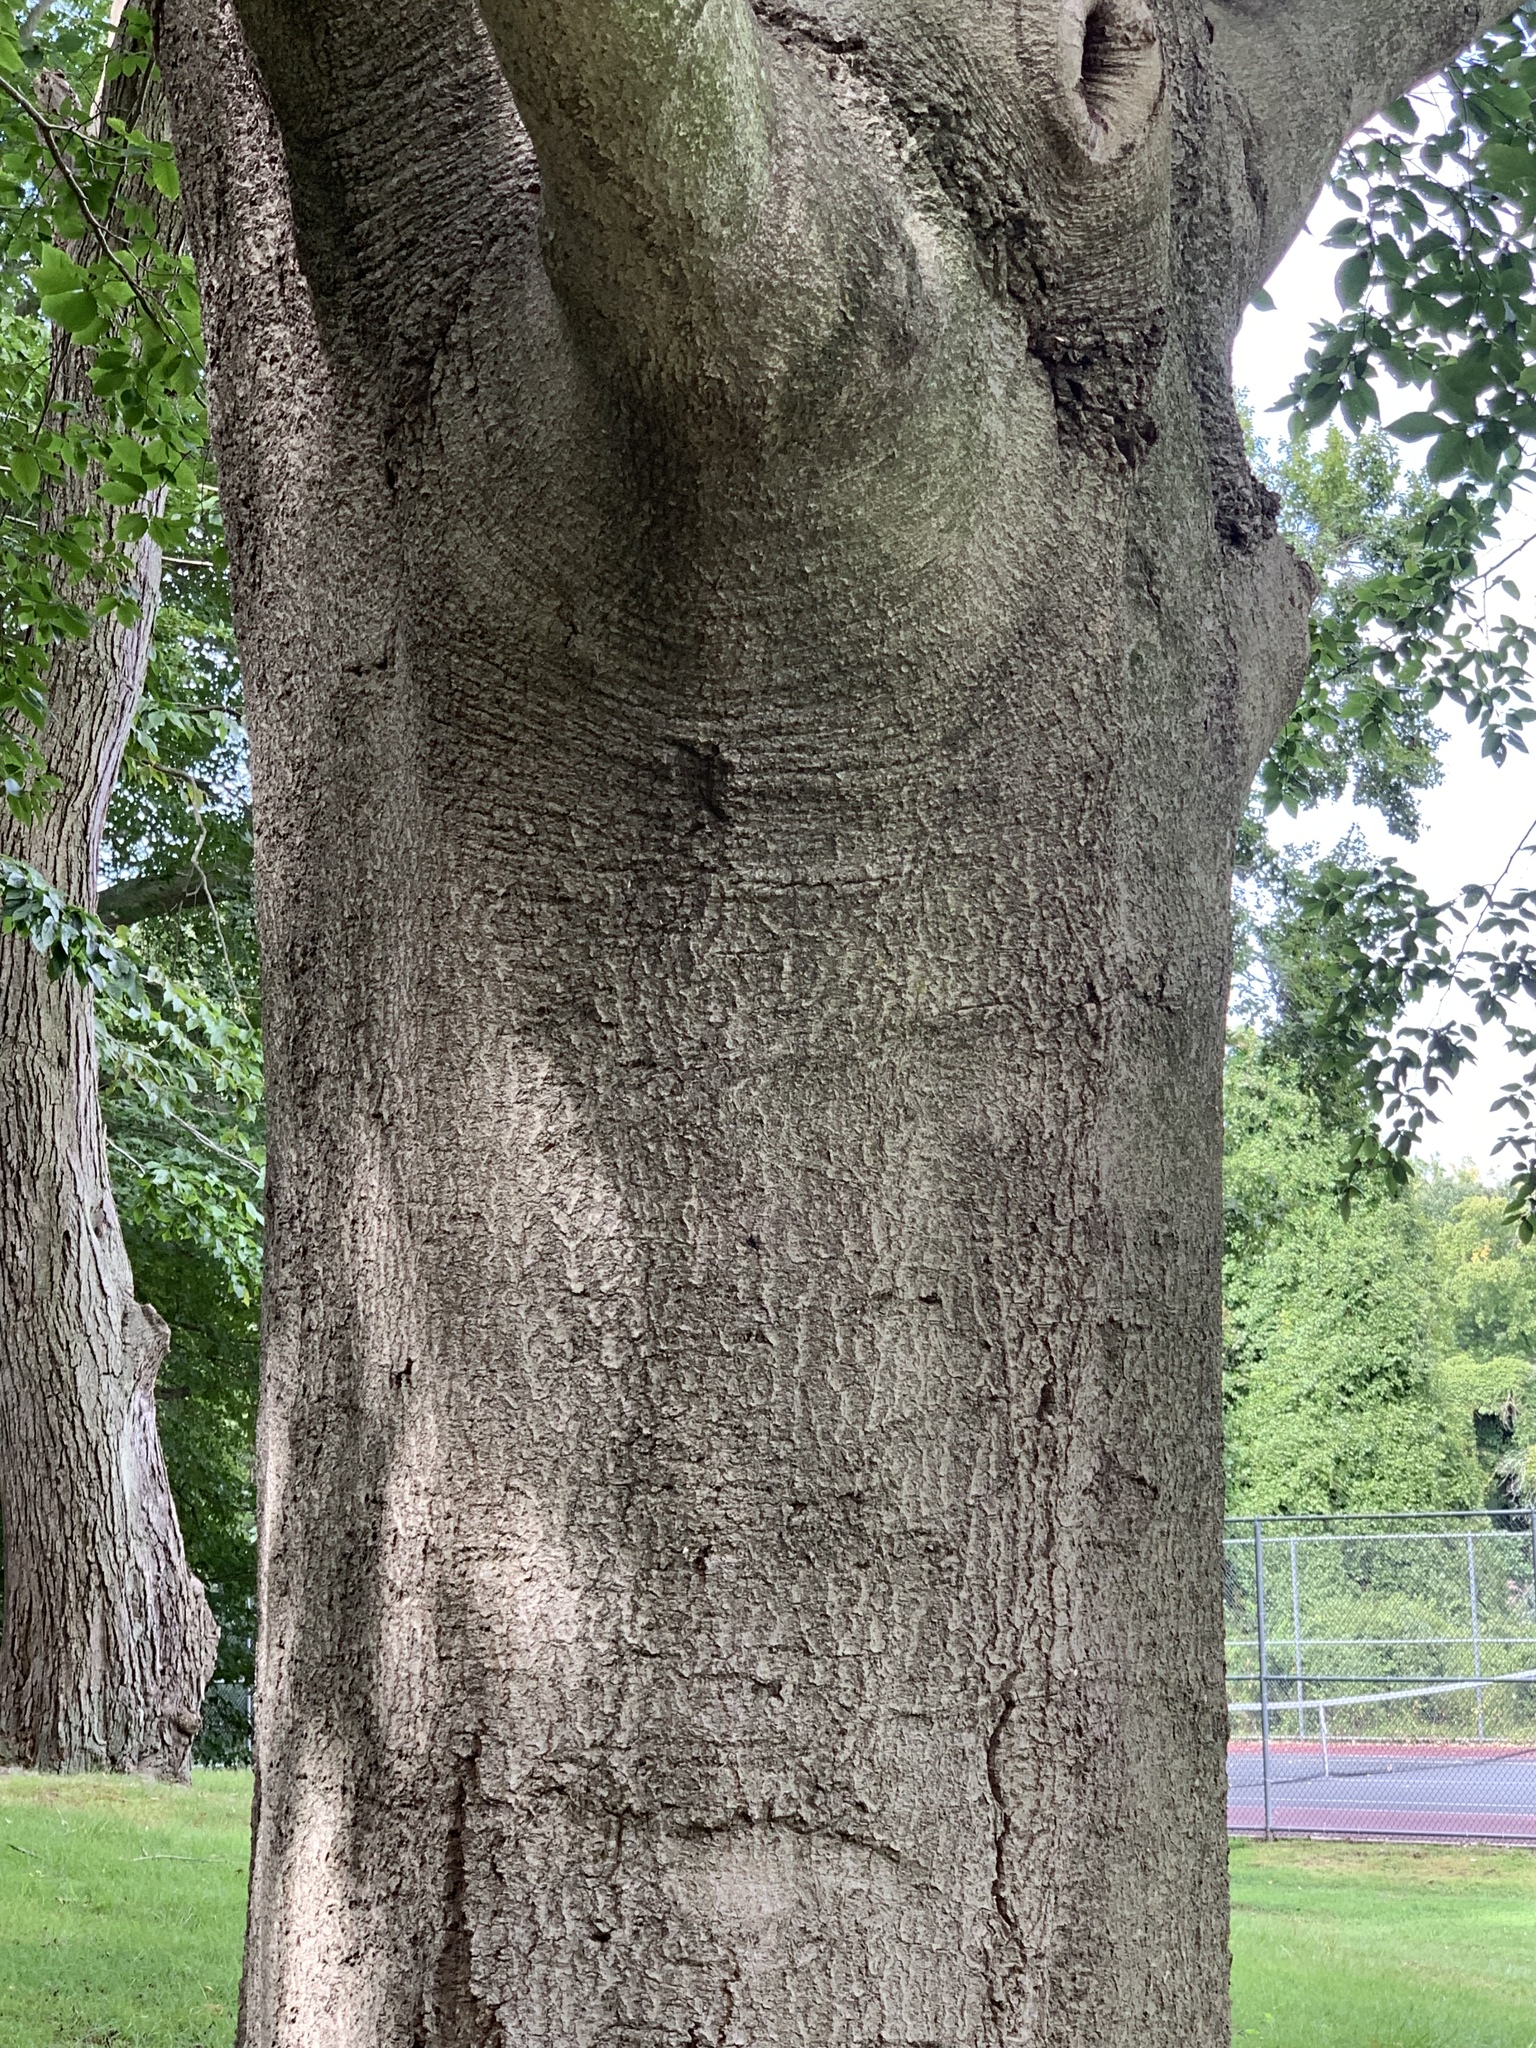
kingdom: Plantae
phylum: Tracheophyta
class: Magnoliopsida
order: Fagales
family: Fagaceae
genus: Fagus
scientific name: Fagus grandifolia
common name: American beech
